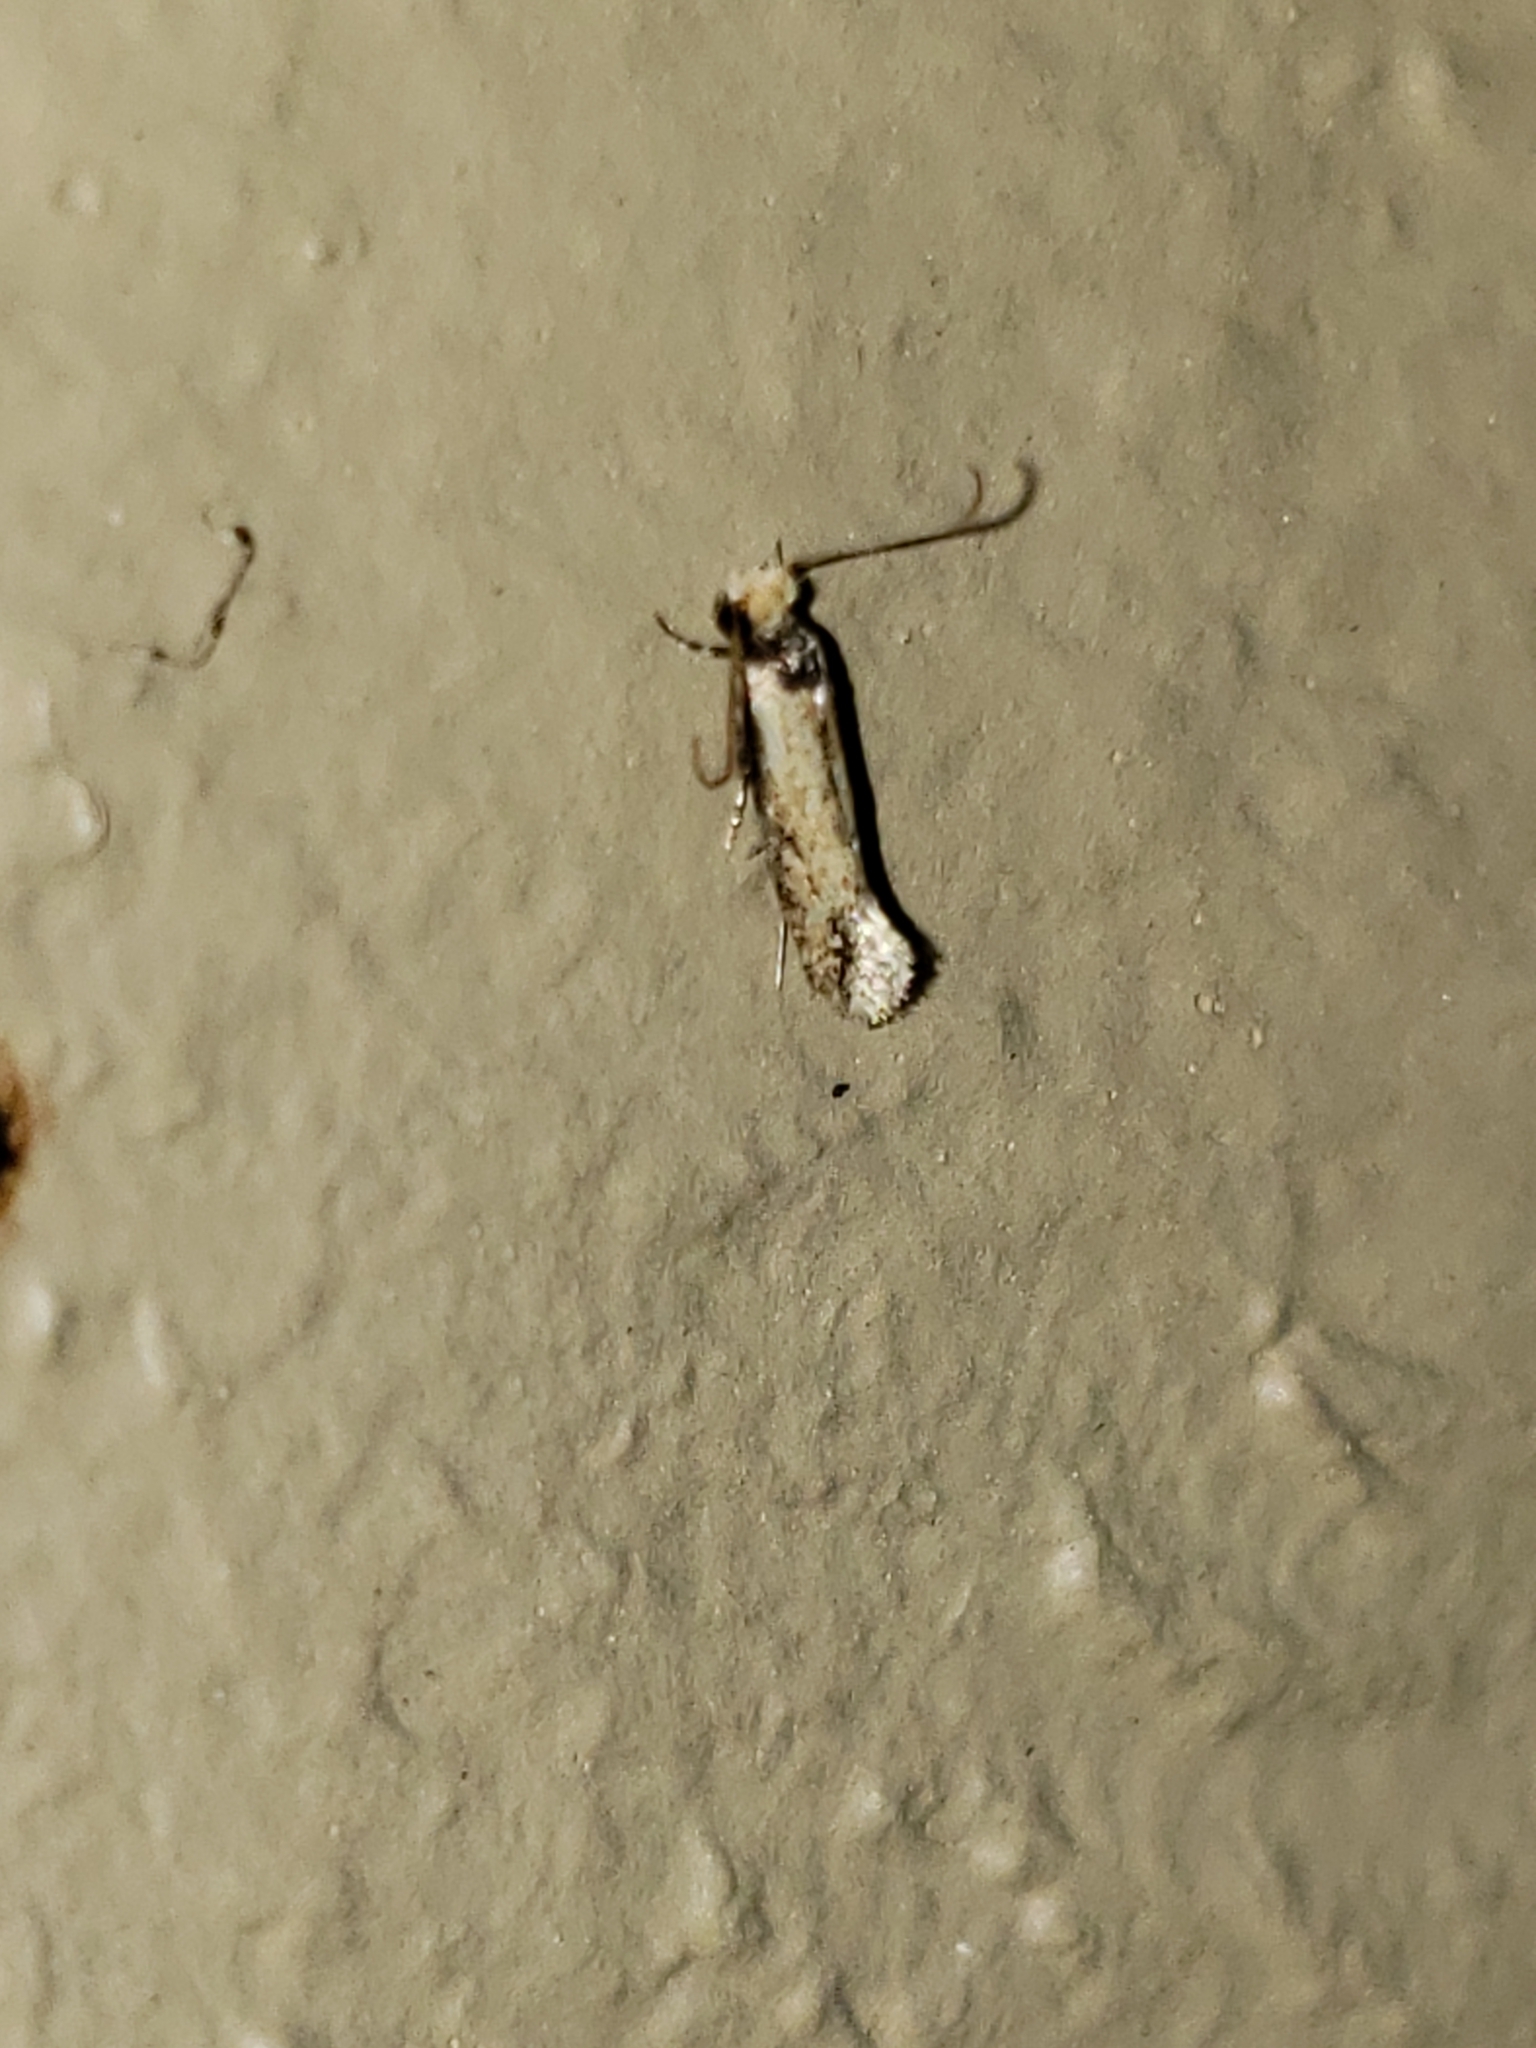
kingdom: Animalia
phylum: Arthropoda
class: Insecta
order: Lepidoptera
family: Meessiidae
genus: Homostinea
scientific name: Homostinea curviliniella
